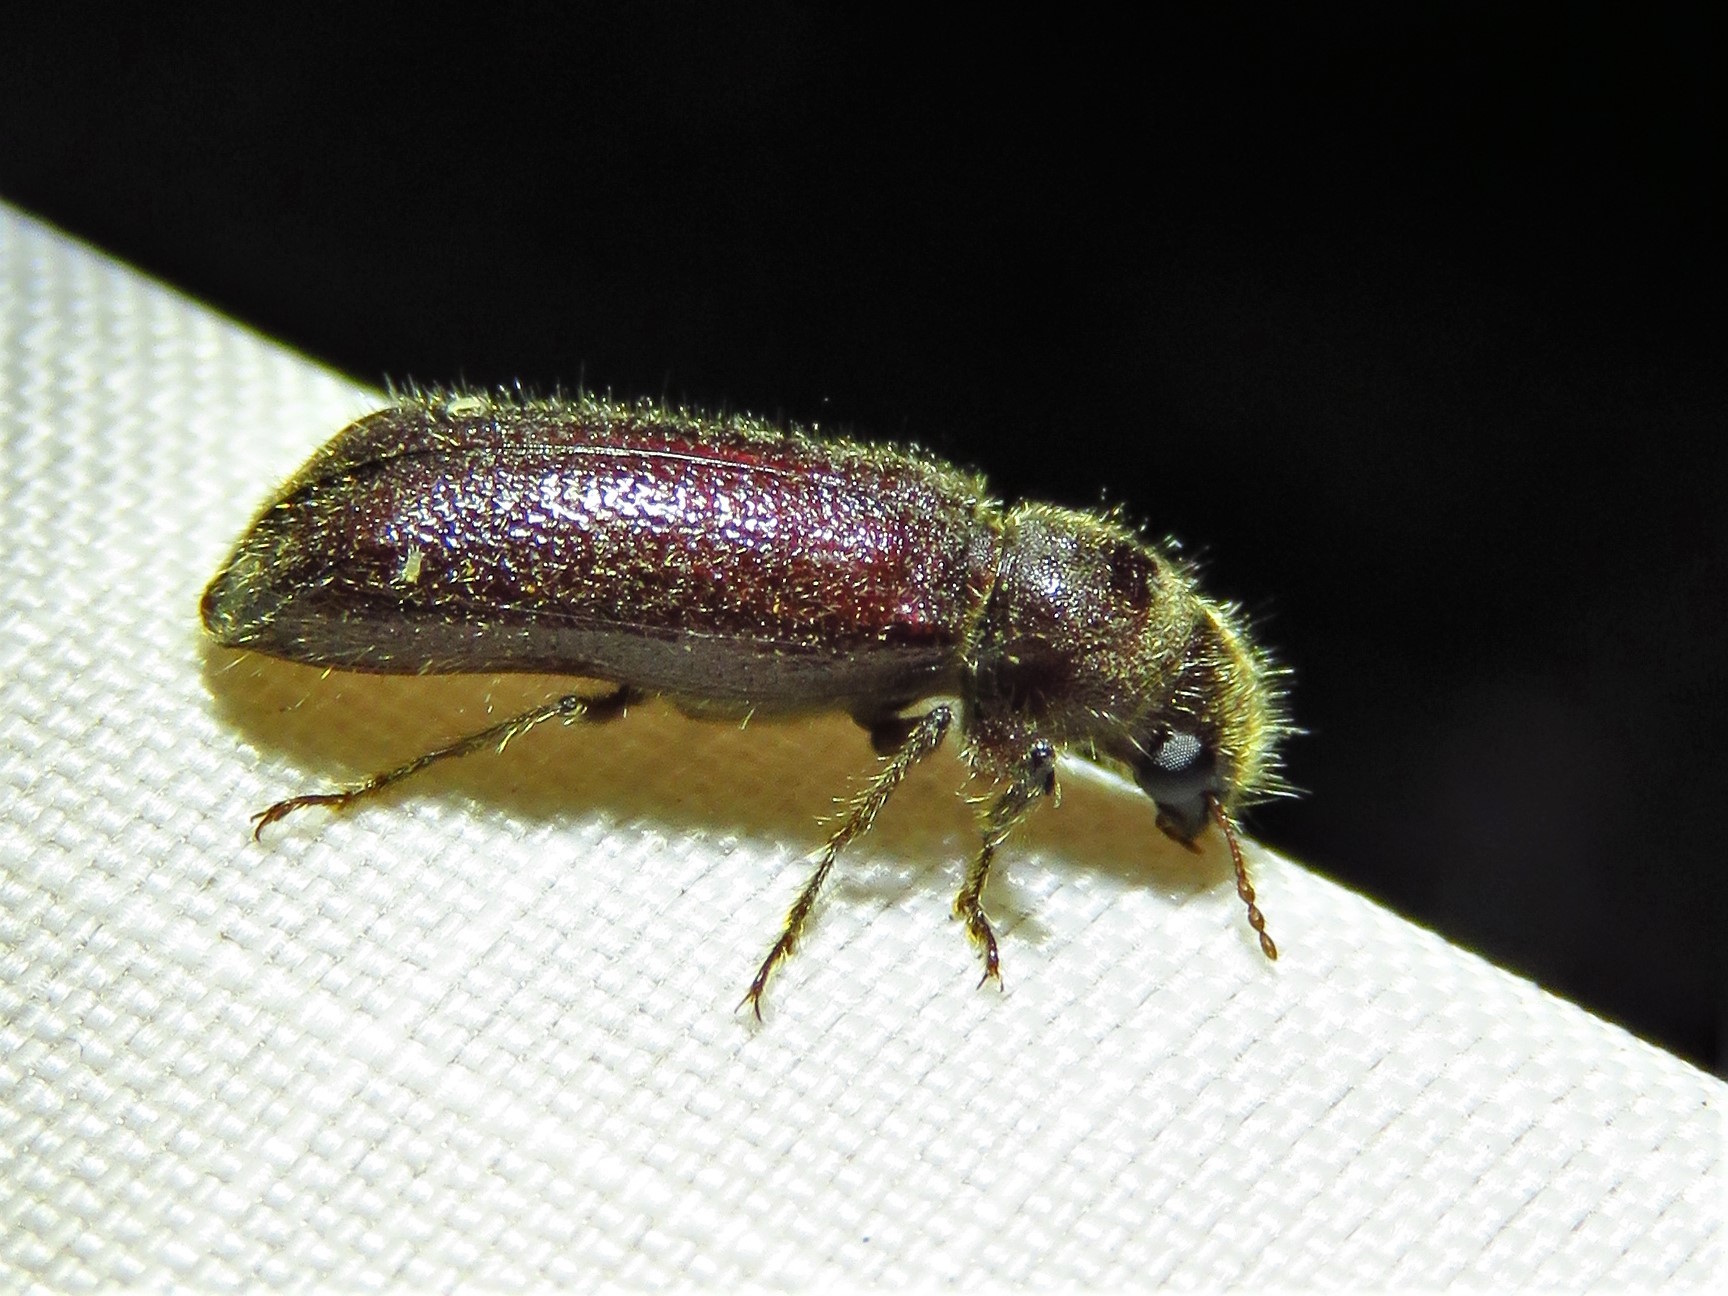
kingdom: Animalia
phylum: Arthropoda
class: Insecta
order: Coleoptera
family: Bostrichidae
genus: Melalgus
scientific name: Melalgus plicatus
